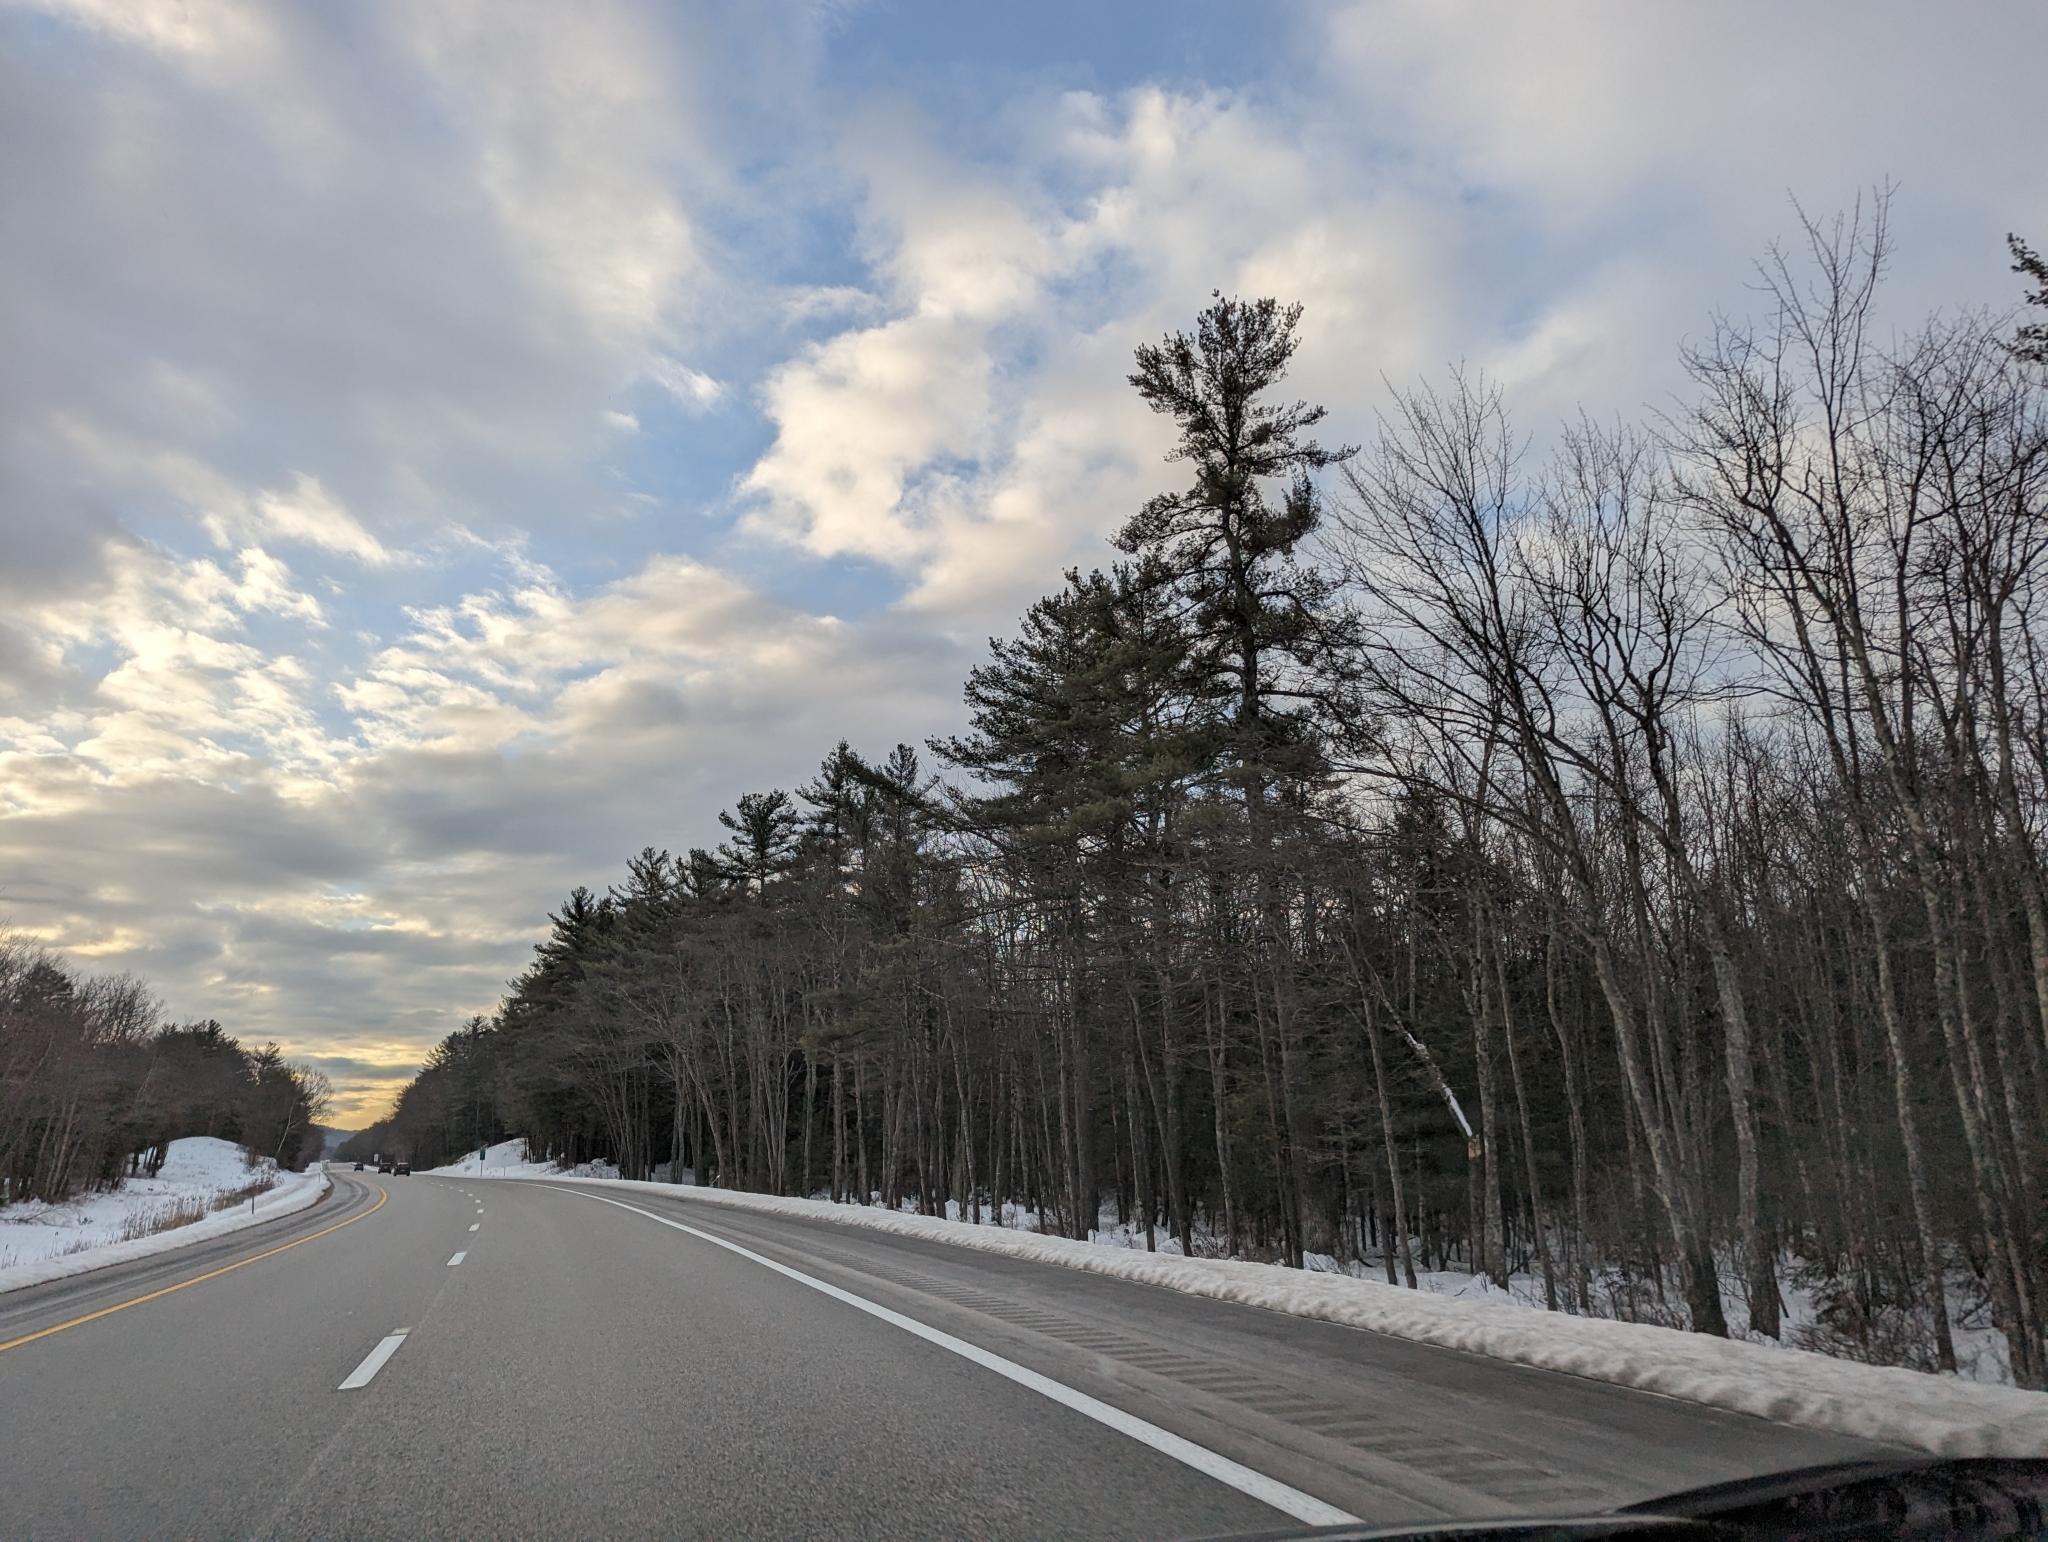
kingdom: Plantae
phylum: Tracheophyta
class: Pinopsida
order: Pinales
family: Pinaceae
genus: Pinus
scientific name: Pinus strobus
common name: Weymouth pine
